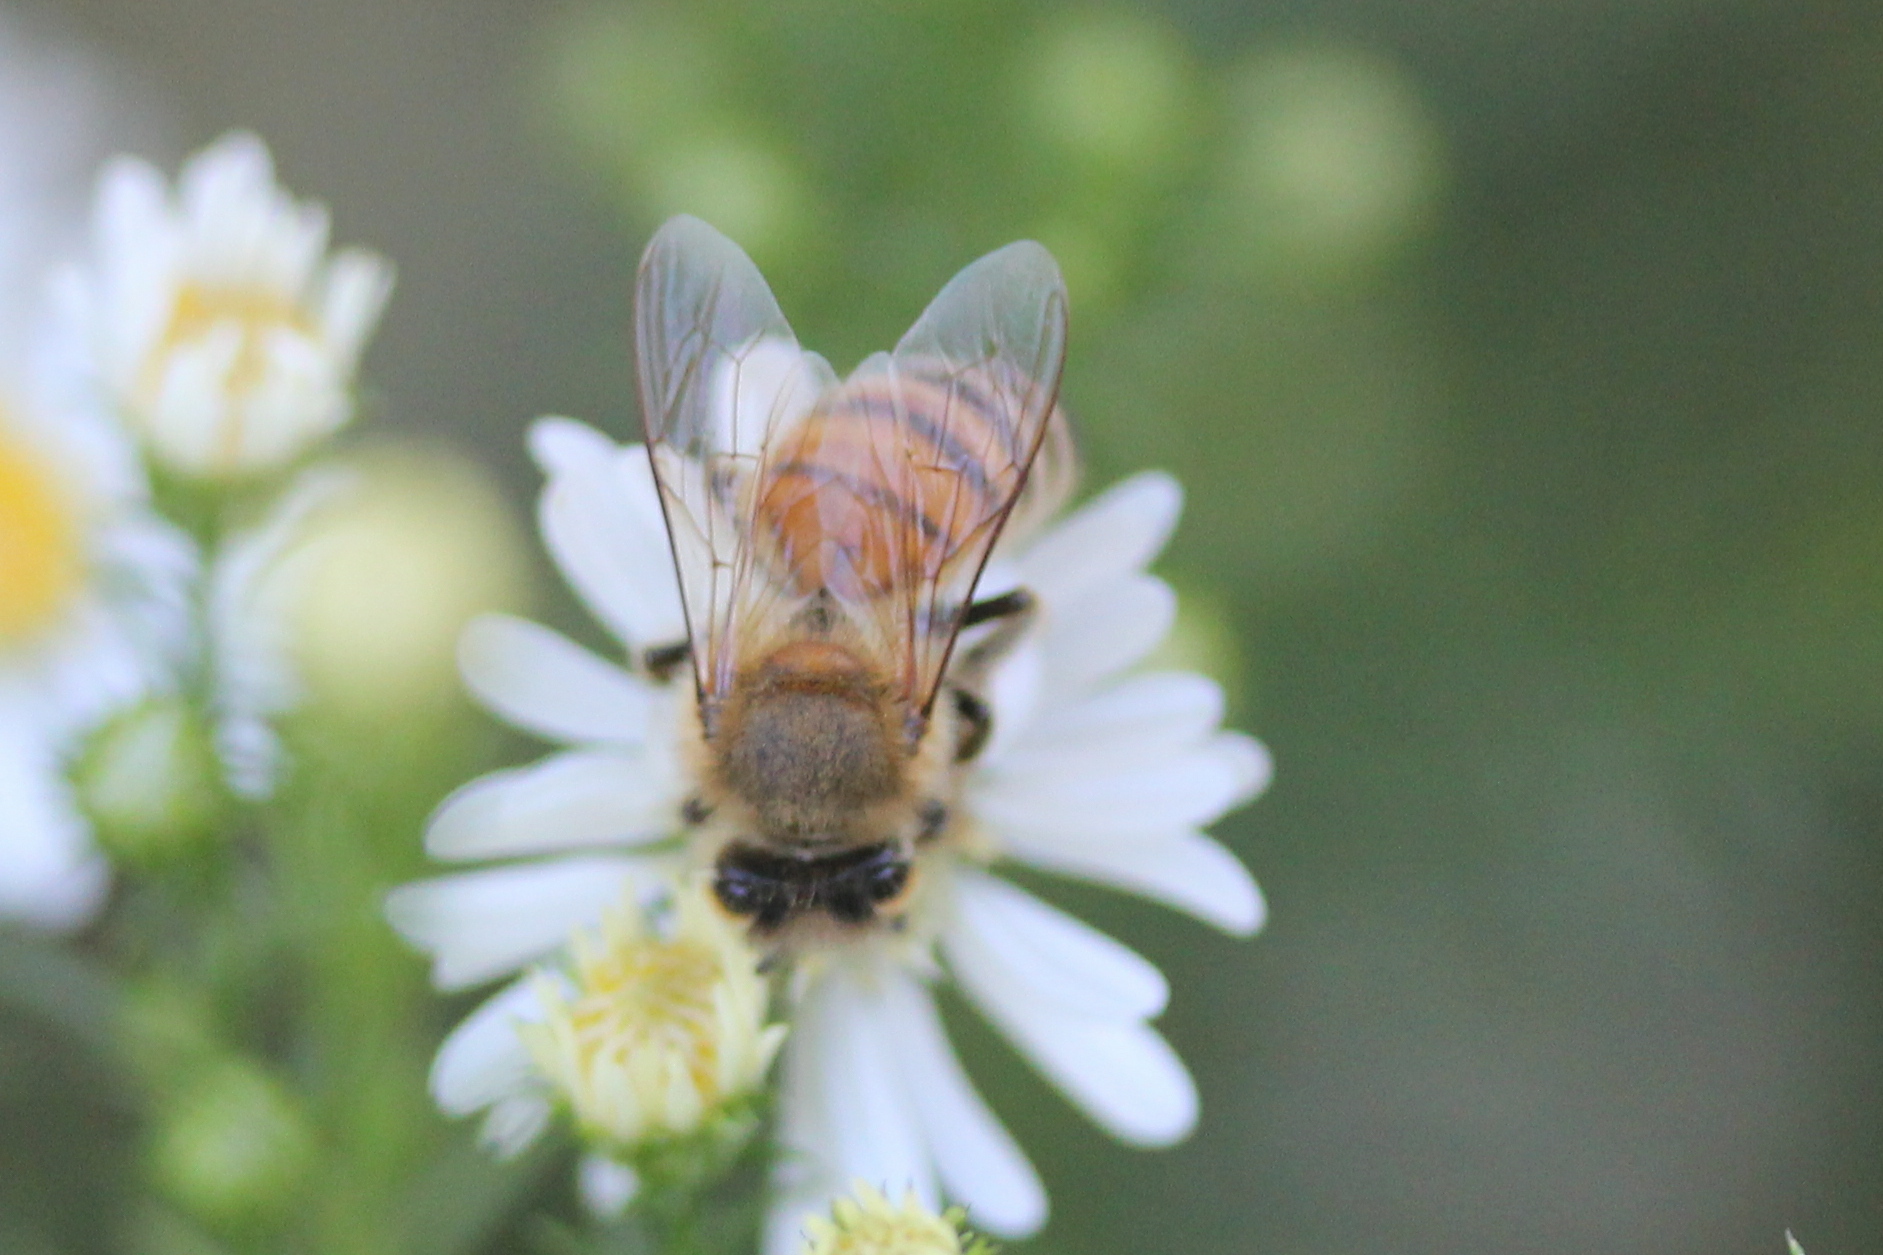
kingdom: Animalia
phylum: Arthropoda
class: Insecta
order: Hymenoptera
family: Apidae
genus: Apis
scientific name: Apis mellifera
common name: Honey bee
